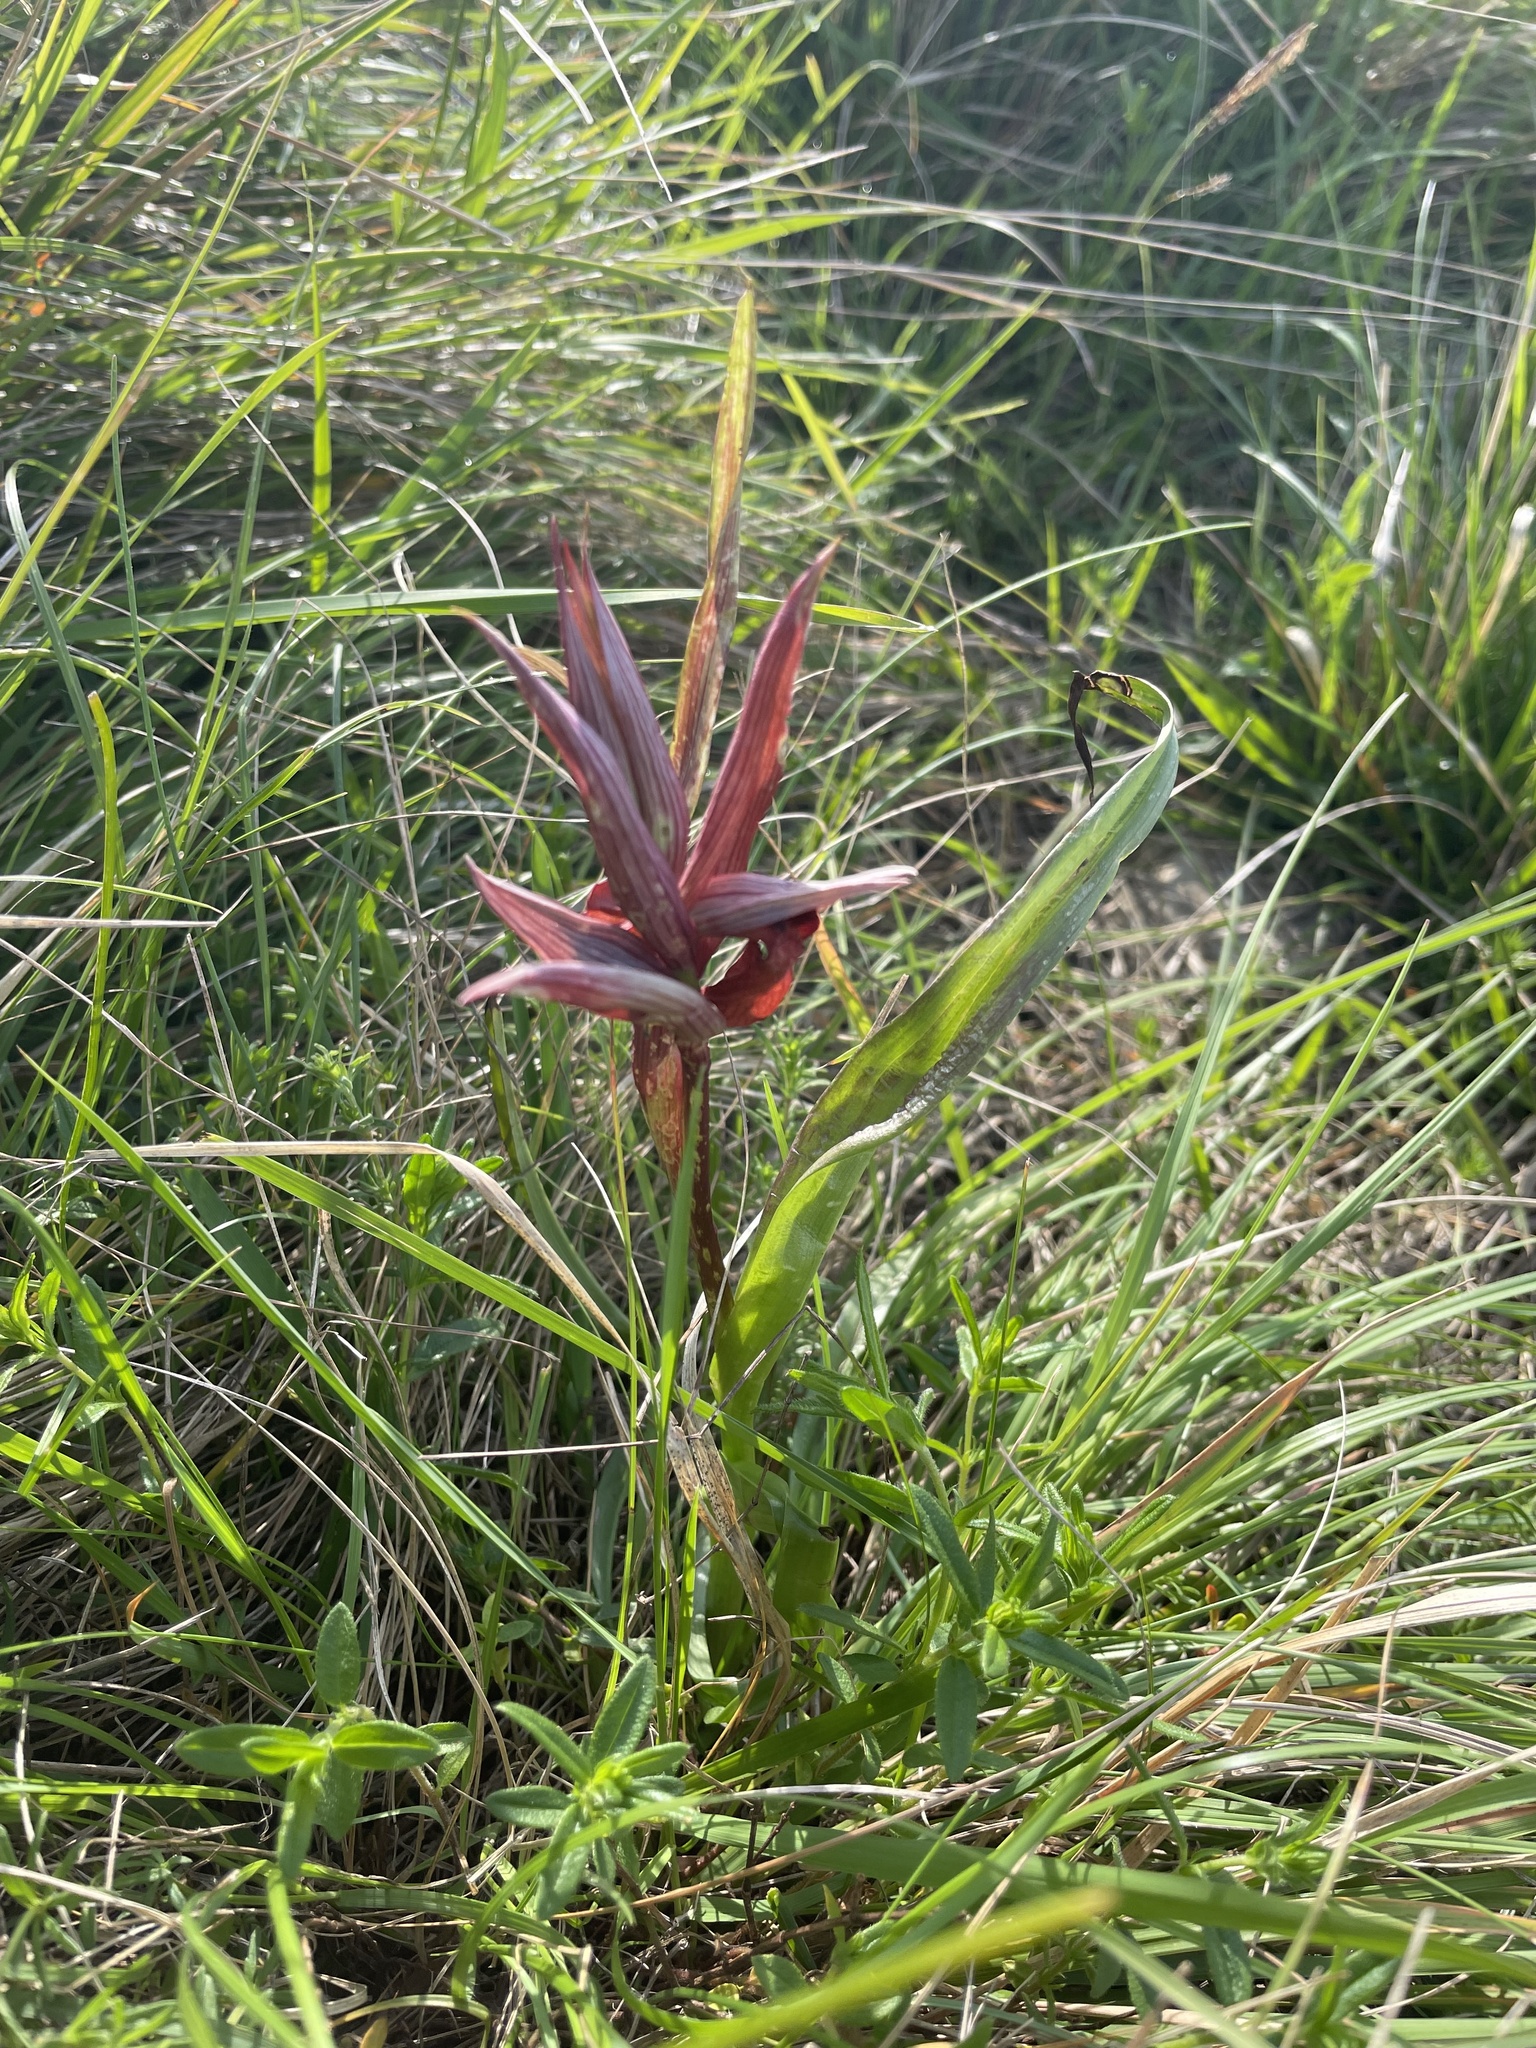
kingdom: Plantae
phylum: Tracheophyta
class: Liliopsida
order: Asparagales
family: Orchidaceae
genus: Serapias
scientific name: Serapias vomeracea
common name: Long-lipped tongue-orchid
